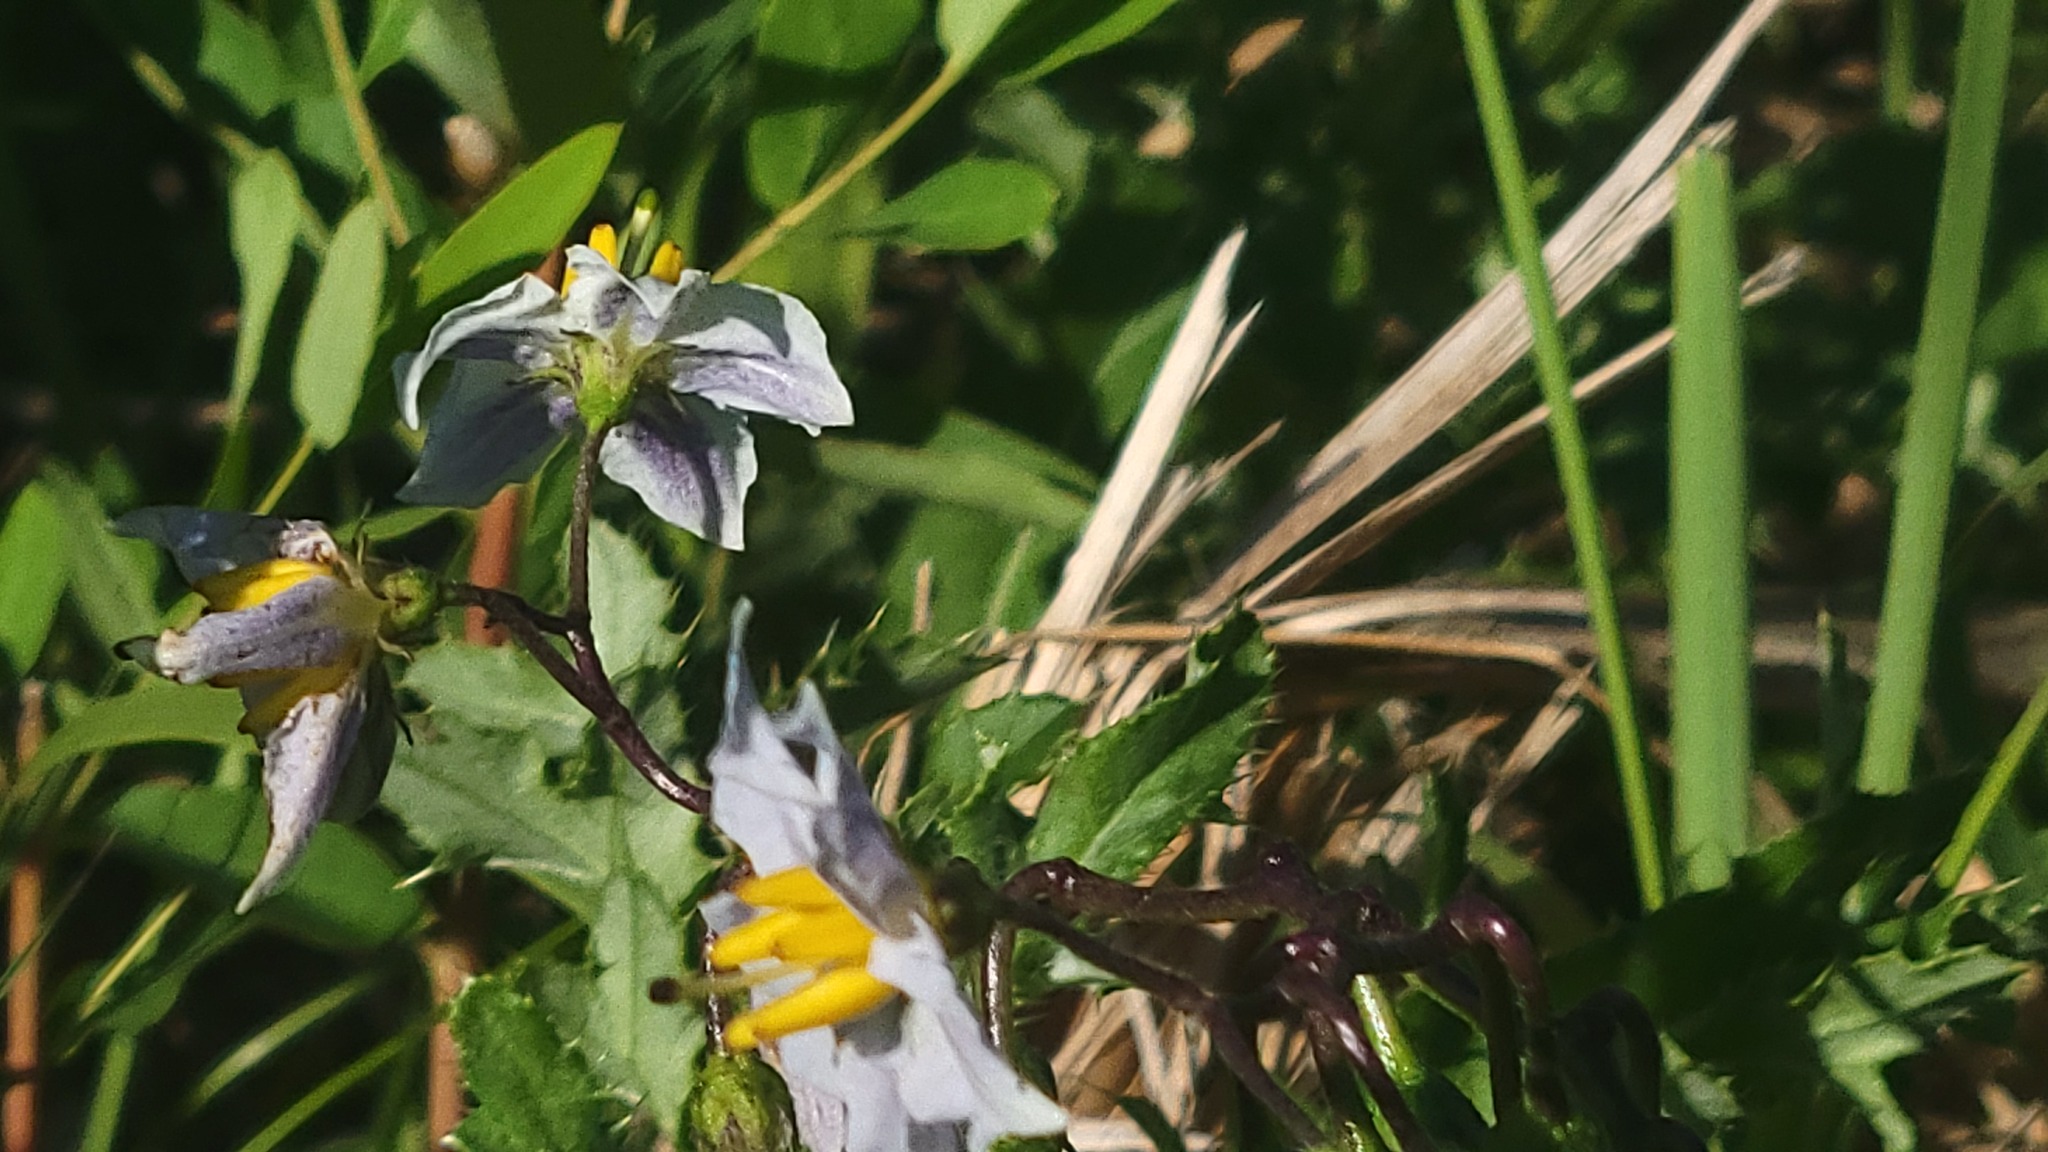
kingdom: Plantae
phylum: Tracheophyta
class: Magnoliopsida
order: Solanales
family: Solanaceae
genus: Solanum
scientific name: Solanum carolinense
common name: Horse-nettle
